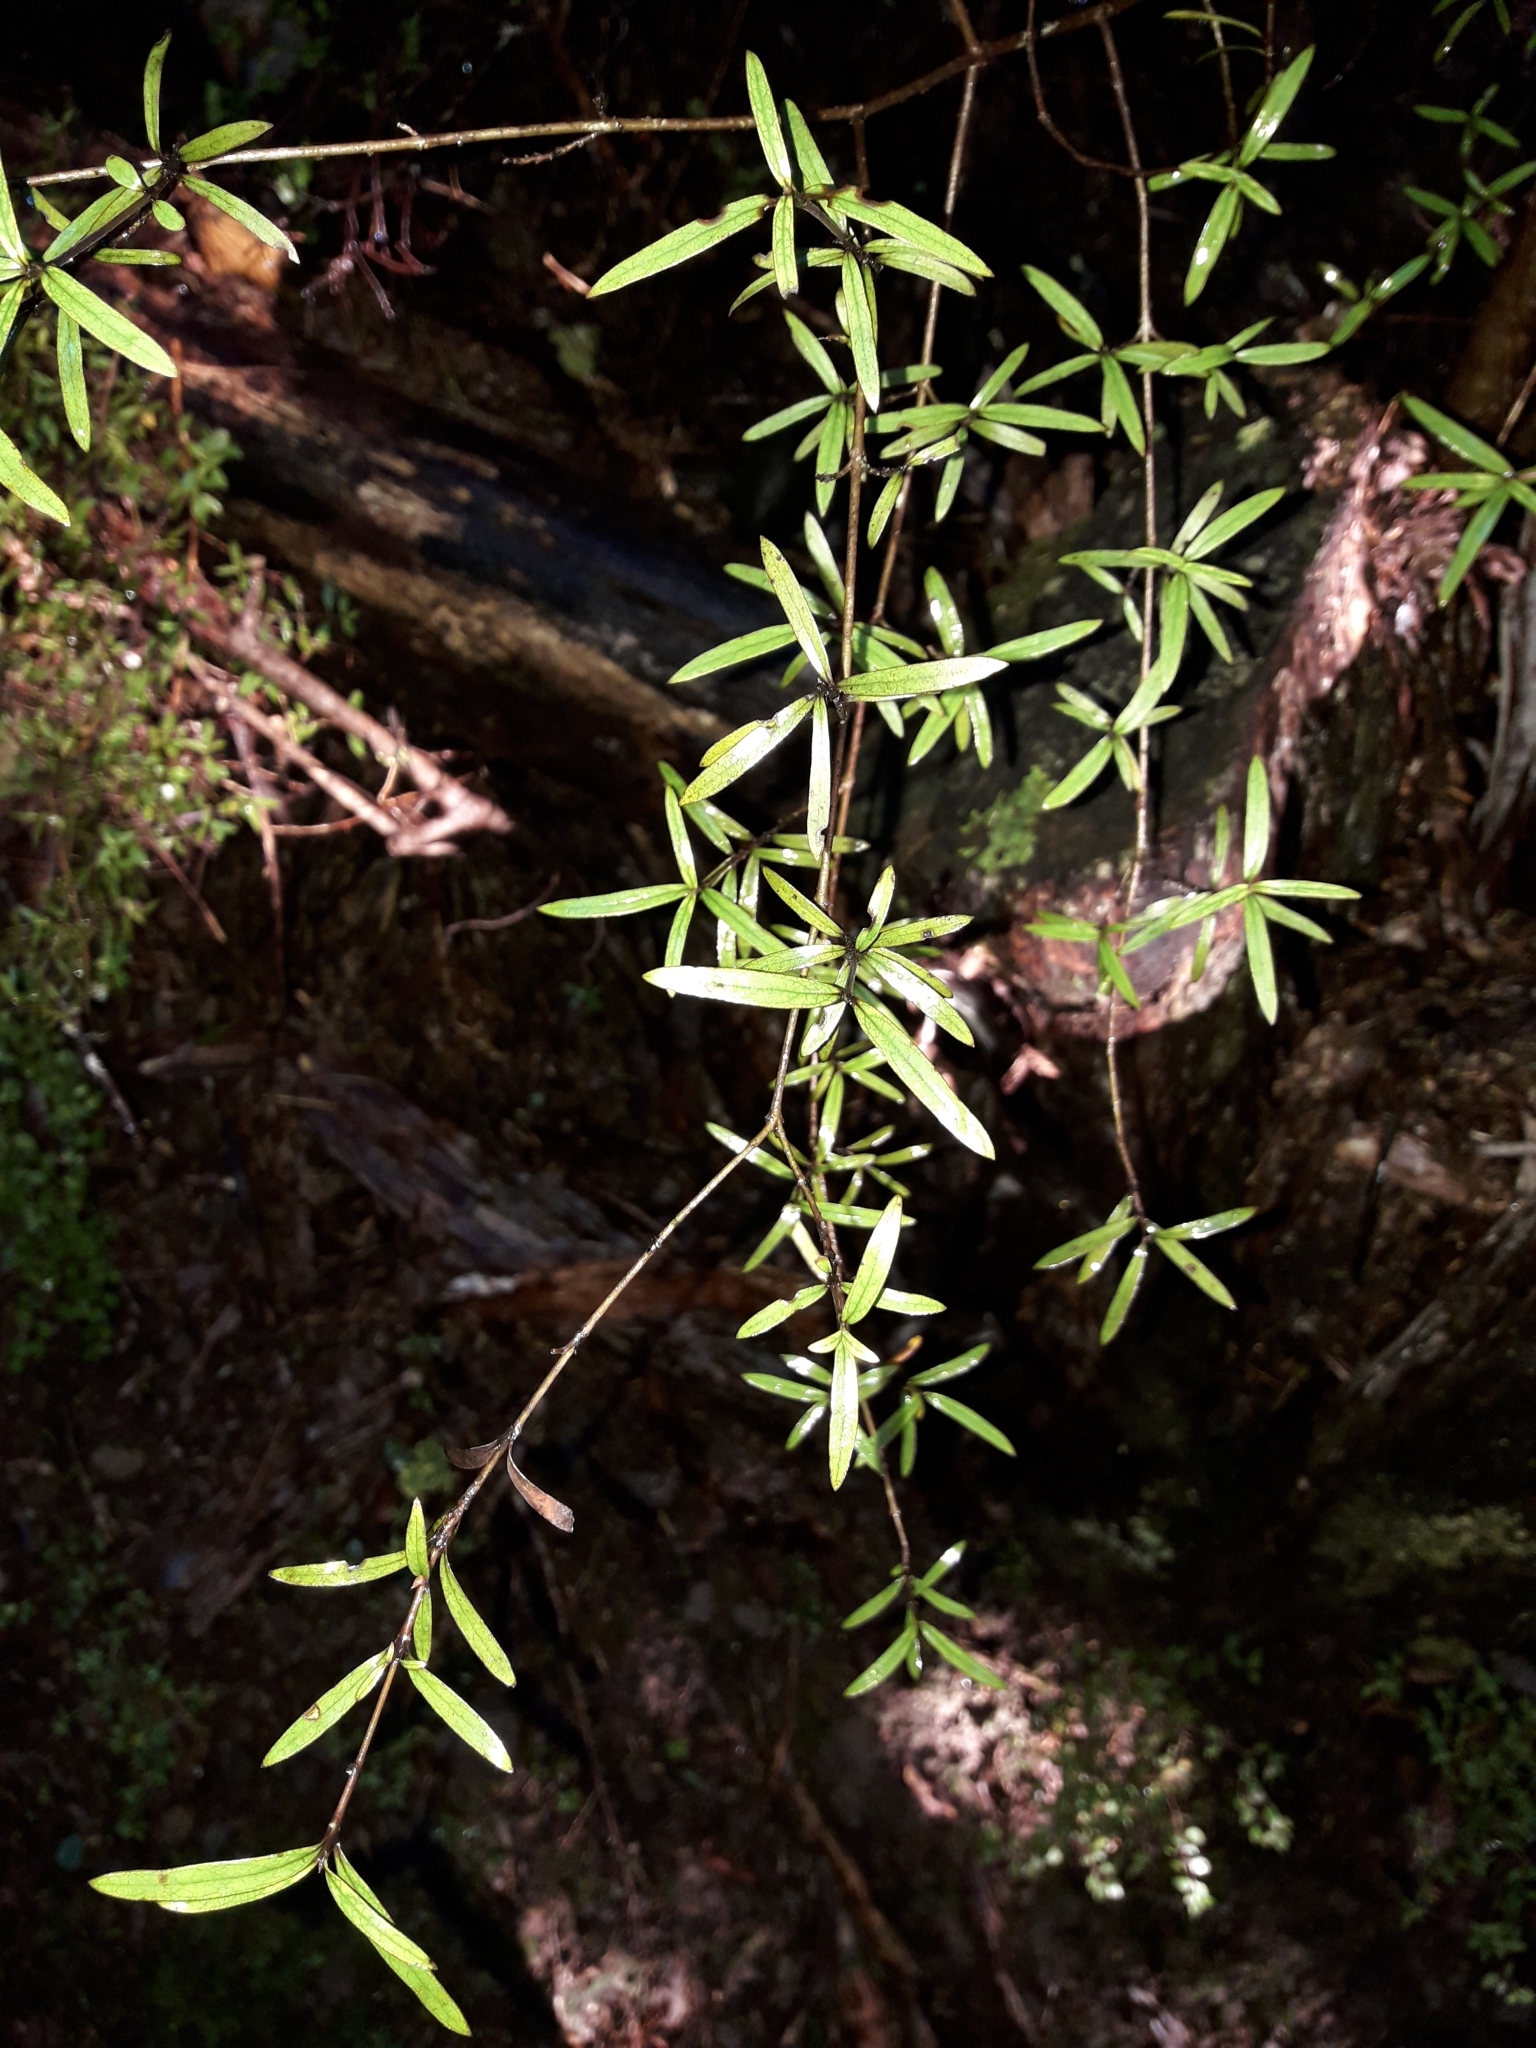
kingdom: Plantae
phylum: Tracheophyta
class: Magnoliopsida
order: Gentianales
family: Rubiaceae
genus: Coprosma
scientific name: Coprosma linariifolia
